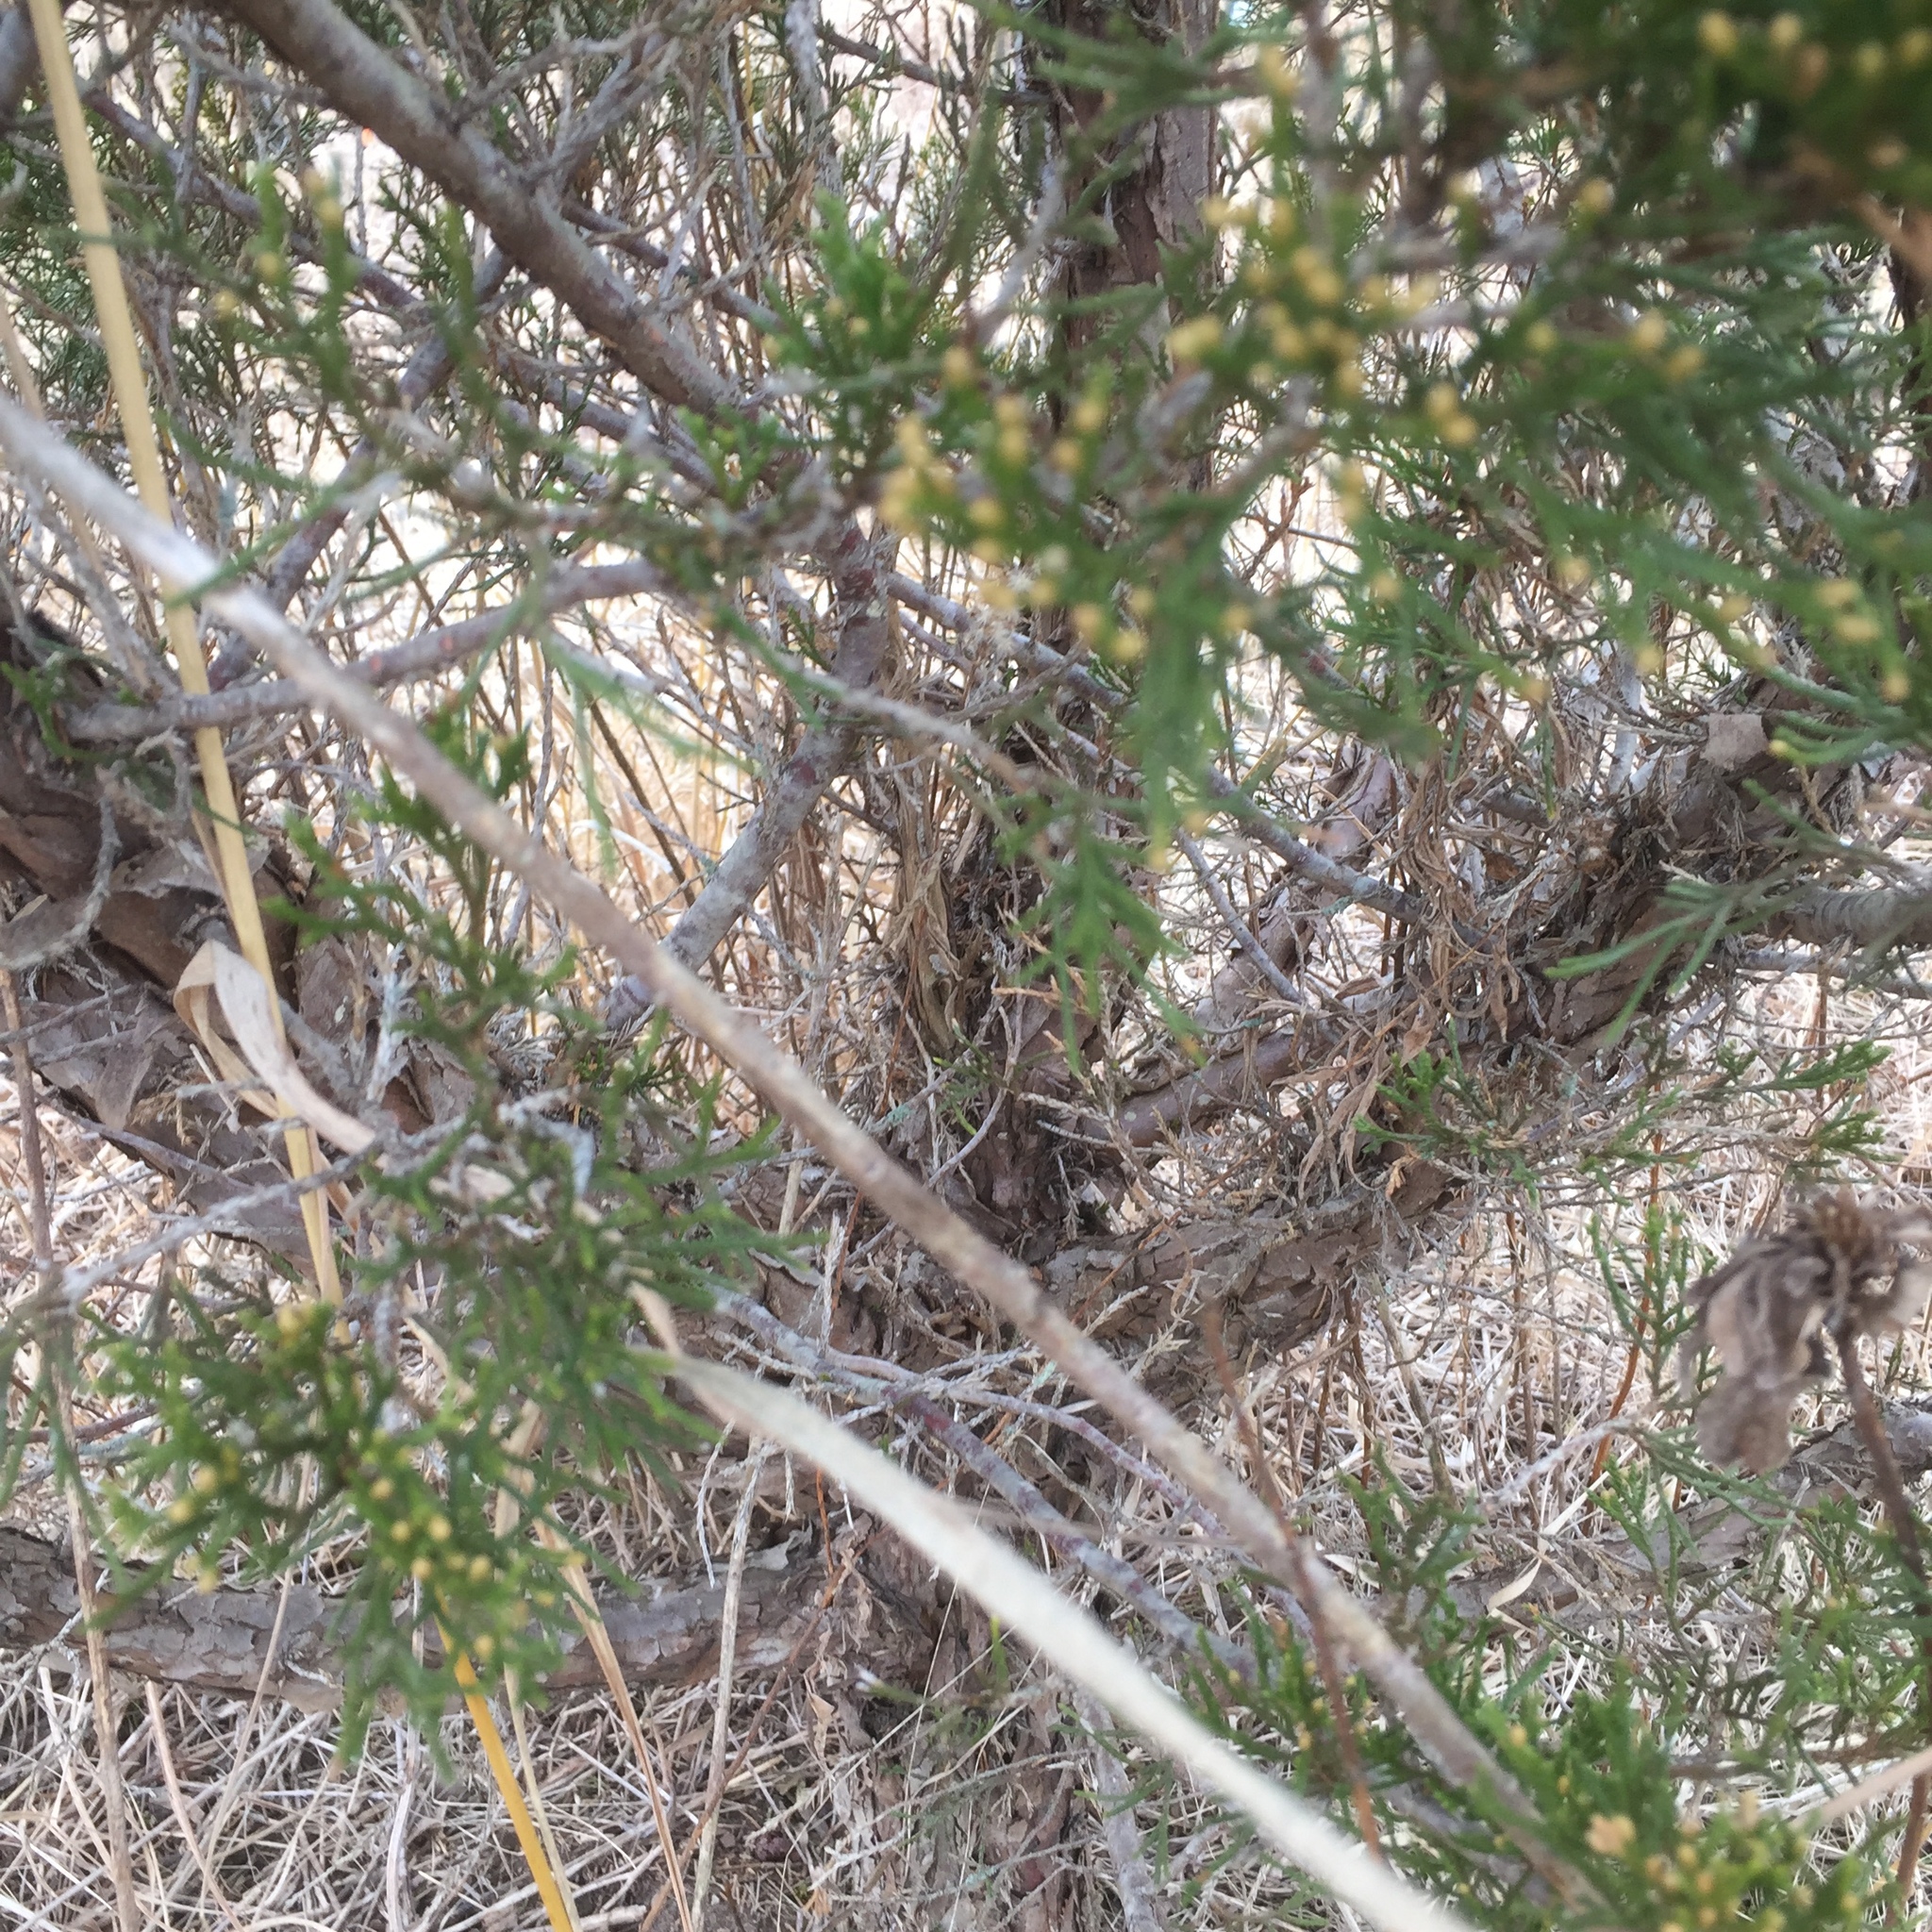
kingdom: Plantae
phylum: Tracheophyta
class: Pinopsida
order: Pinales
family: Cupressaceae
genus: Juniperus
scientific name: Juniperus virginiana
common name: Red juniper
